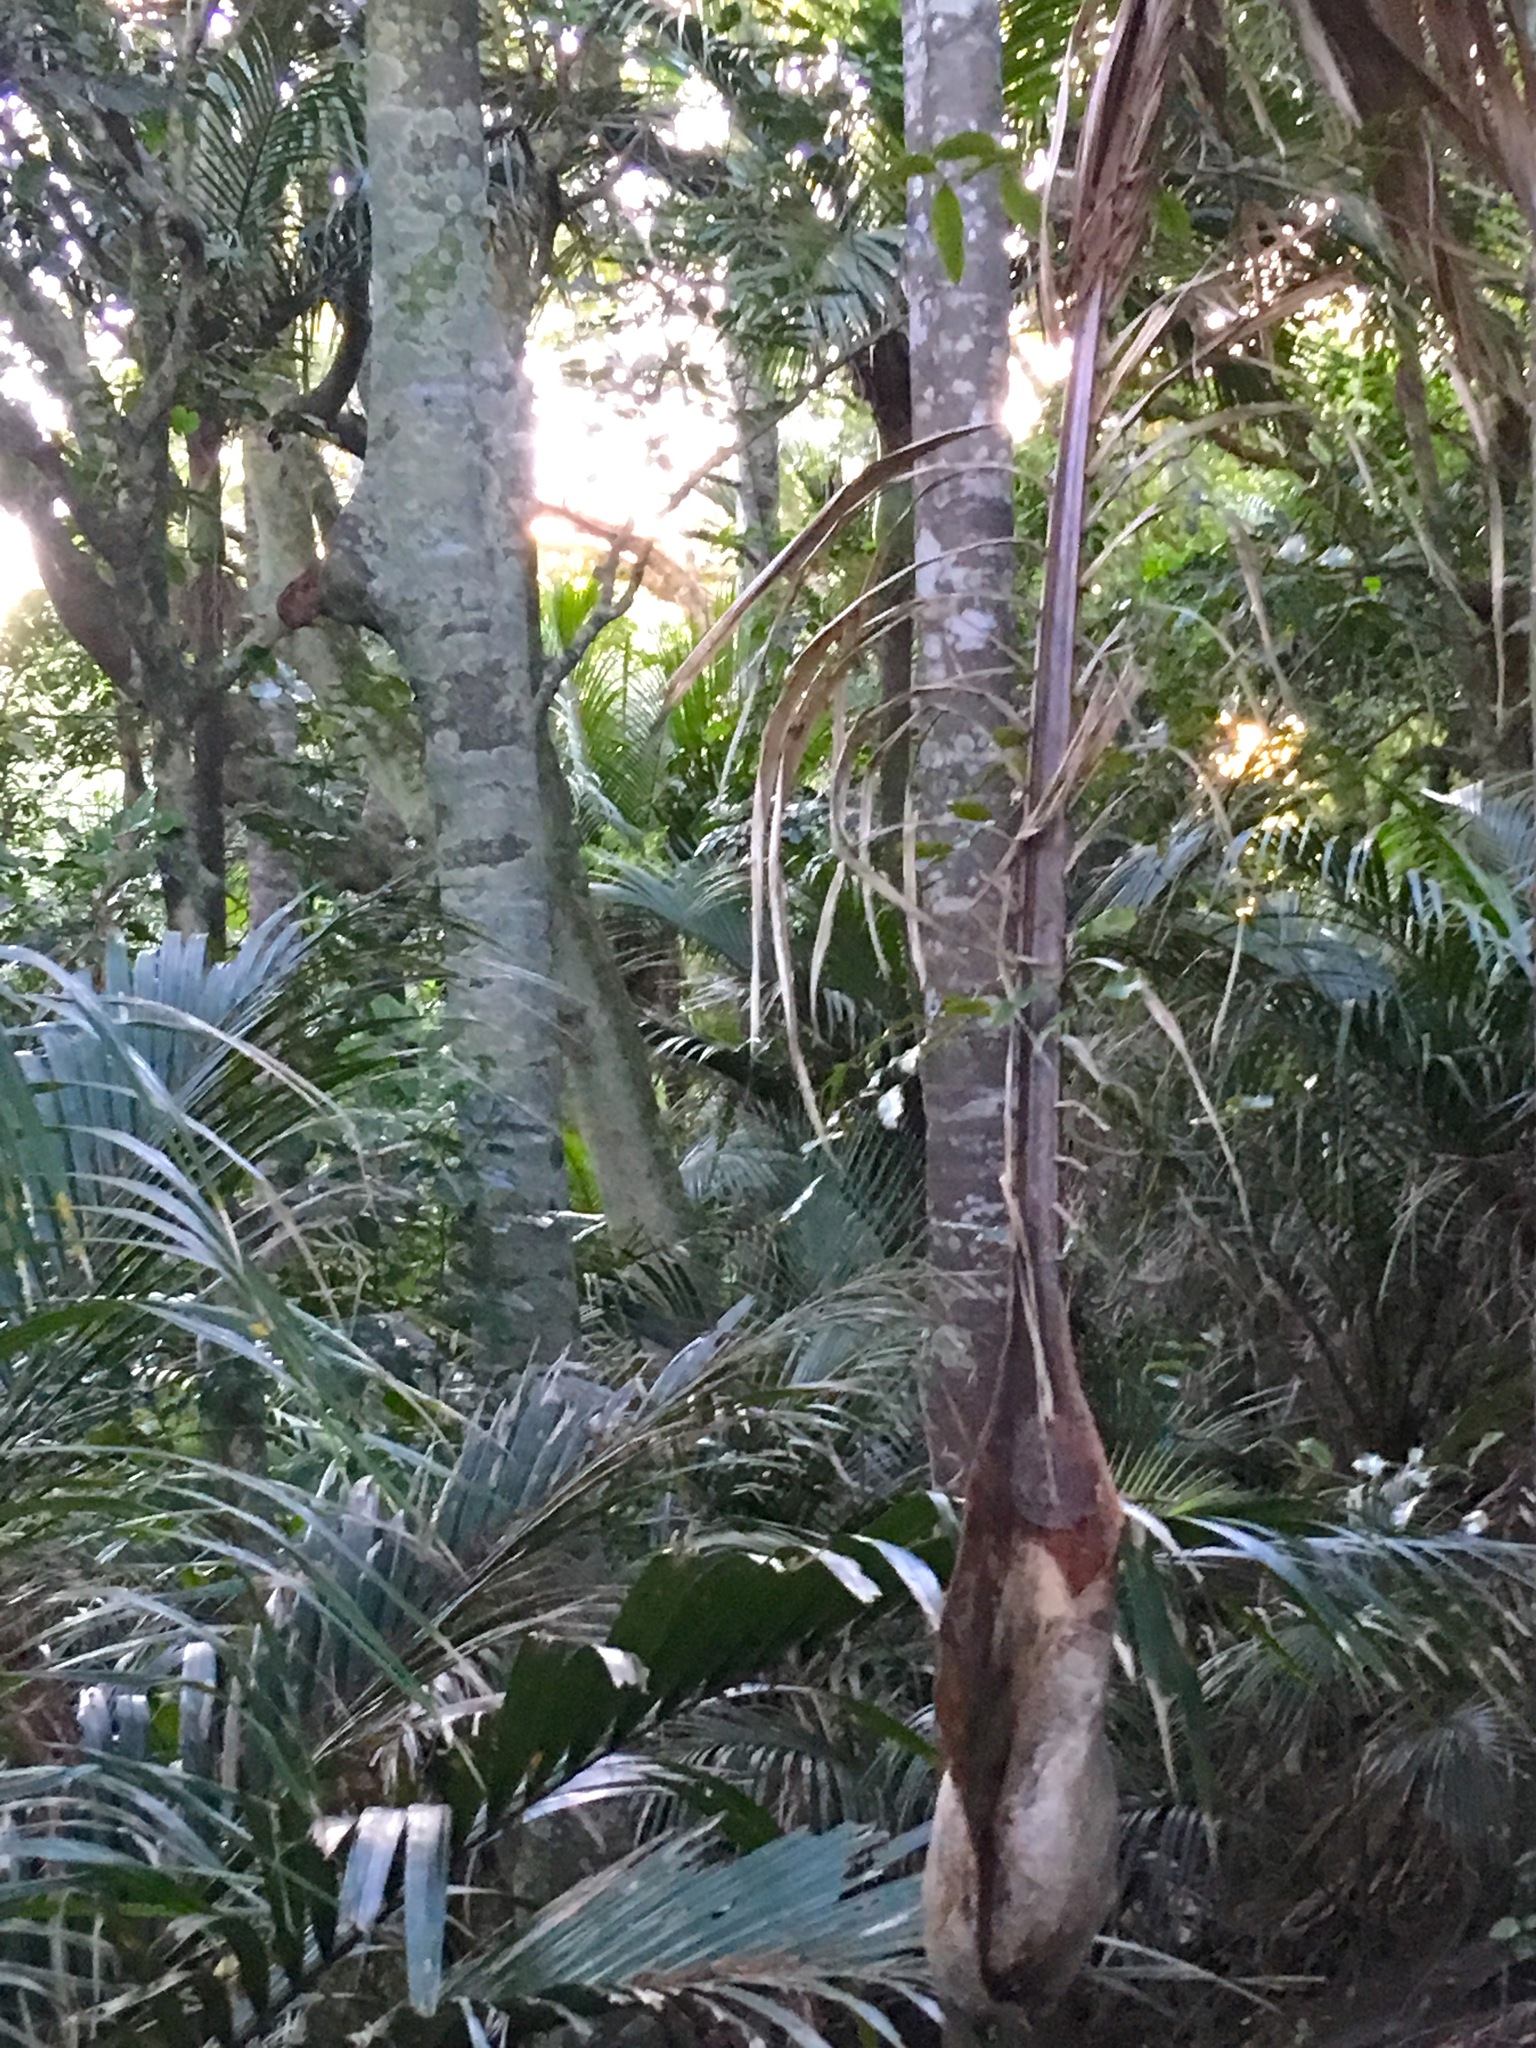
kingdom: Plantae
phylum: Tracheophyta
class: Liliopsida
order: Arecales
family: Arecaceae
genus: Rhopalostylis
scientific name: Rhopalostylis sapida
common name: Feather-duster palm
